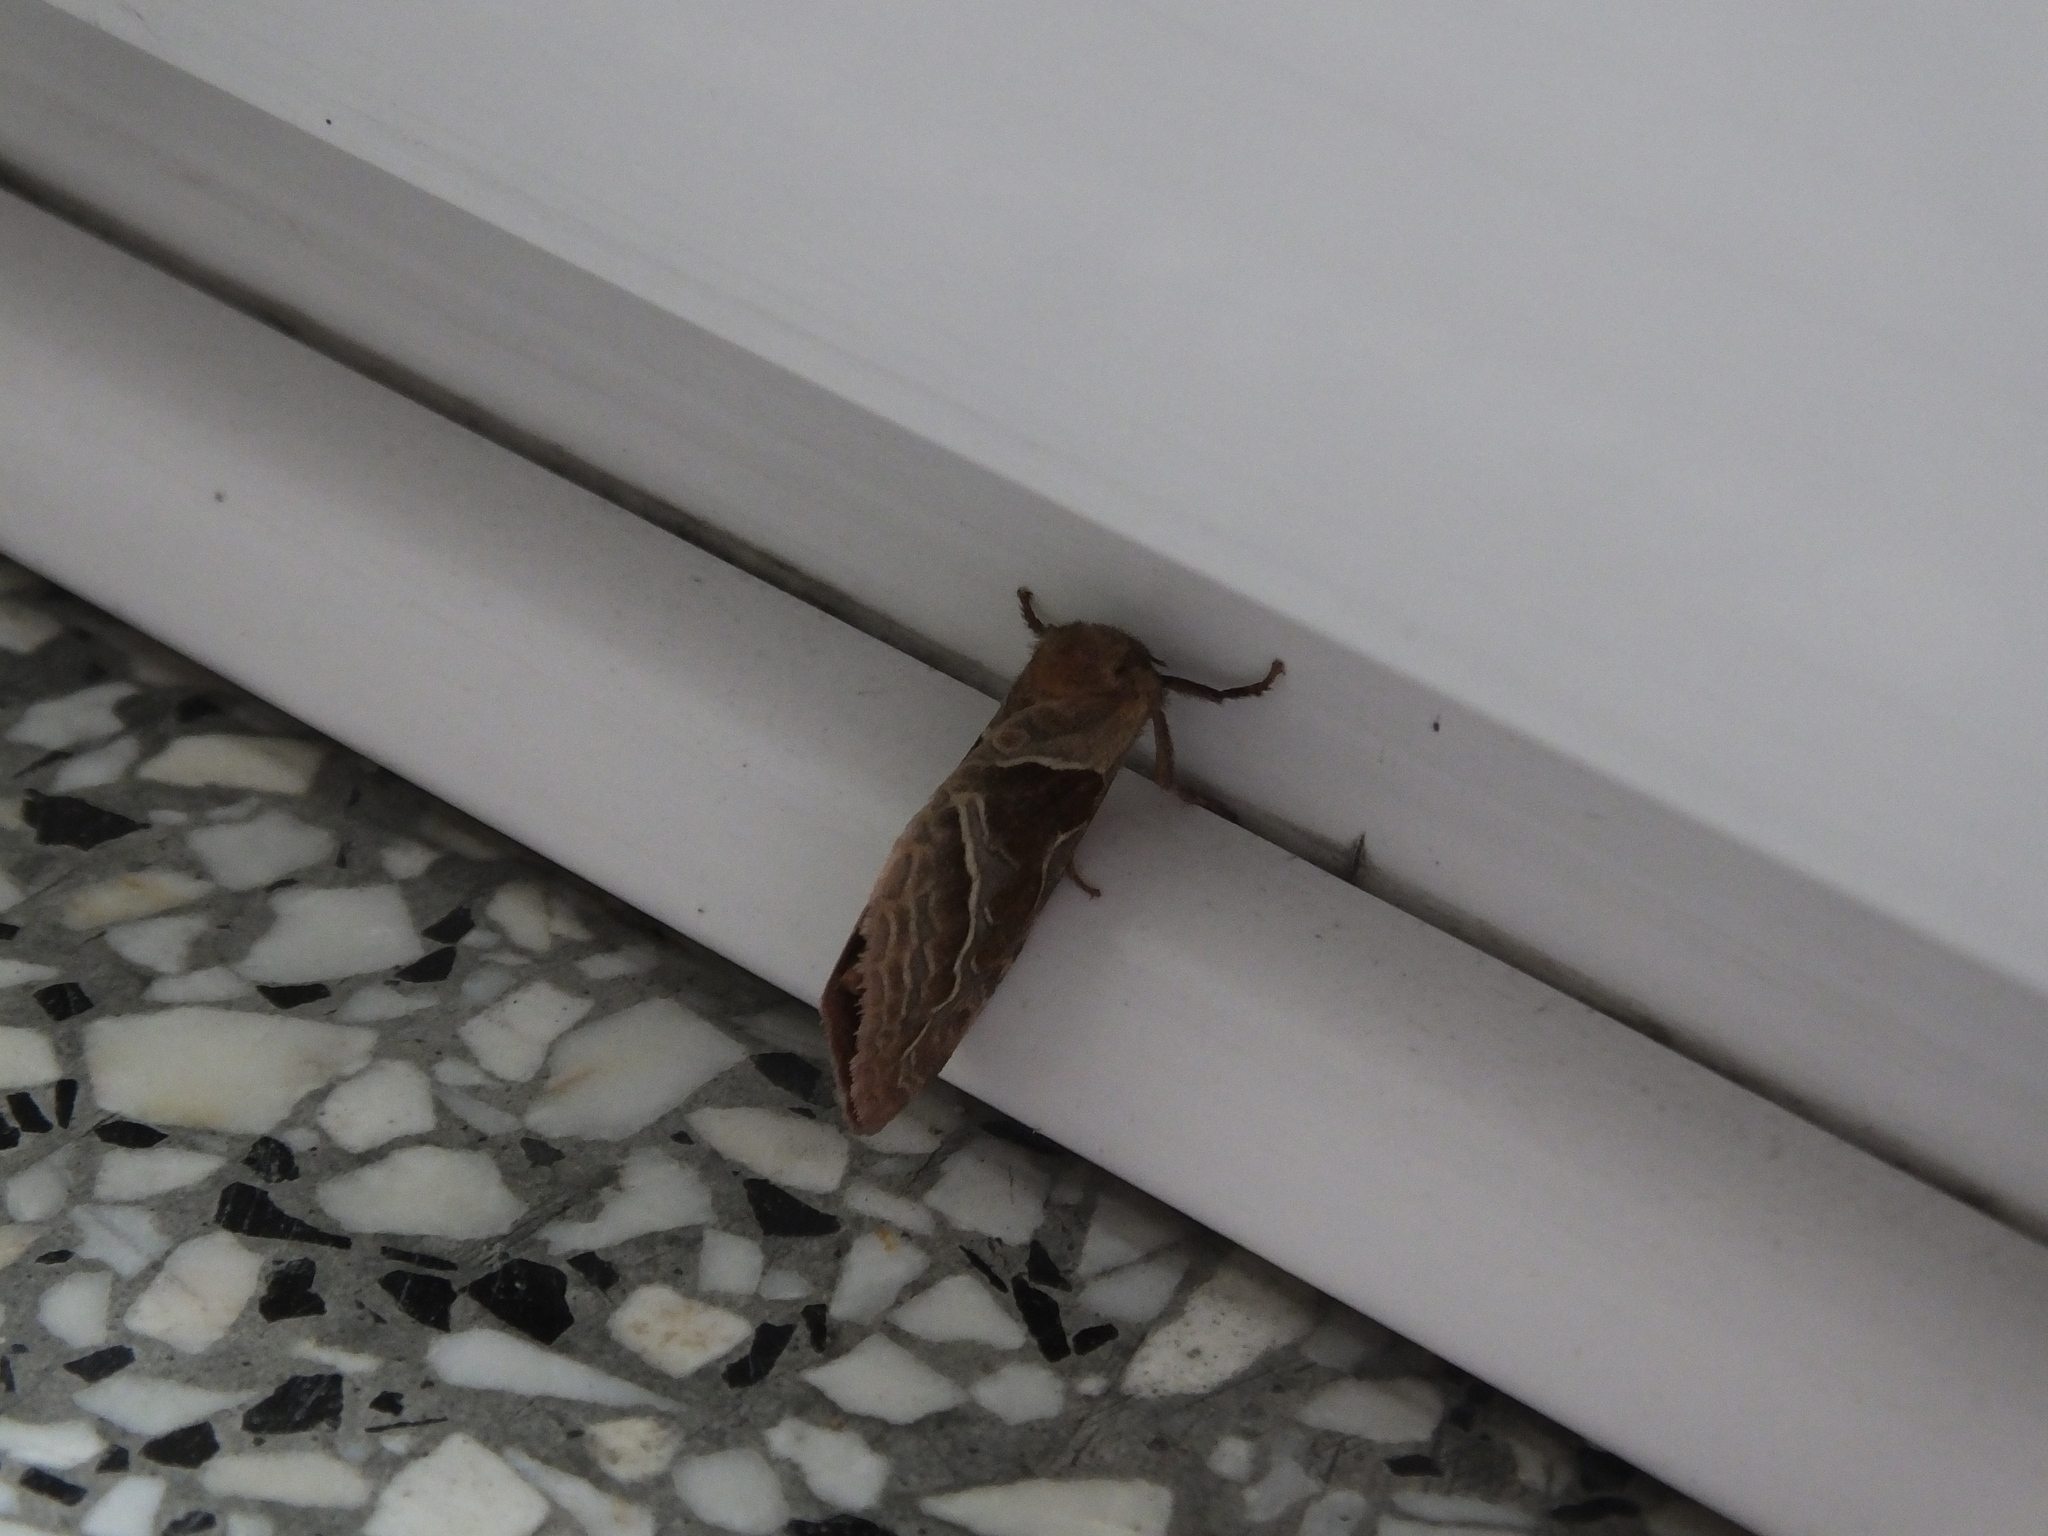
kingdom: Animalia
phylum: Arthropoda
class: Insecta
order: Lepidoptera
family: Hepialidae
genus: Triodia
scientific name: Triodia sylvina
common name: Orange swift
